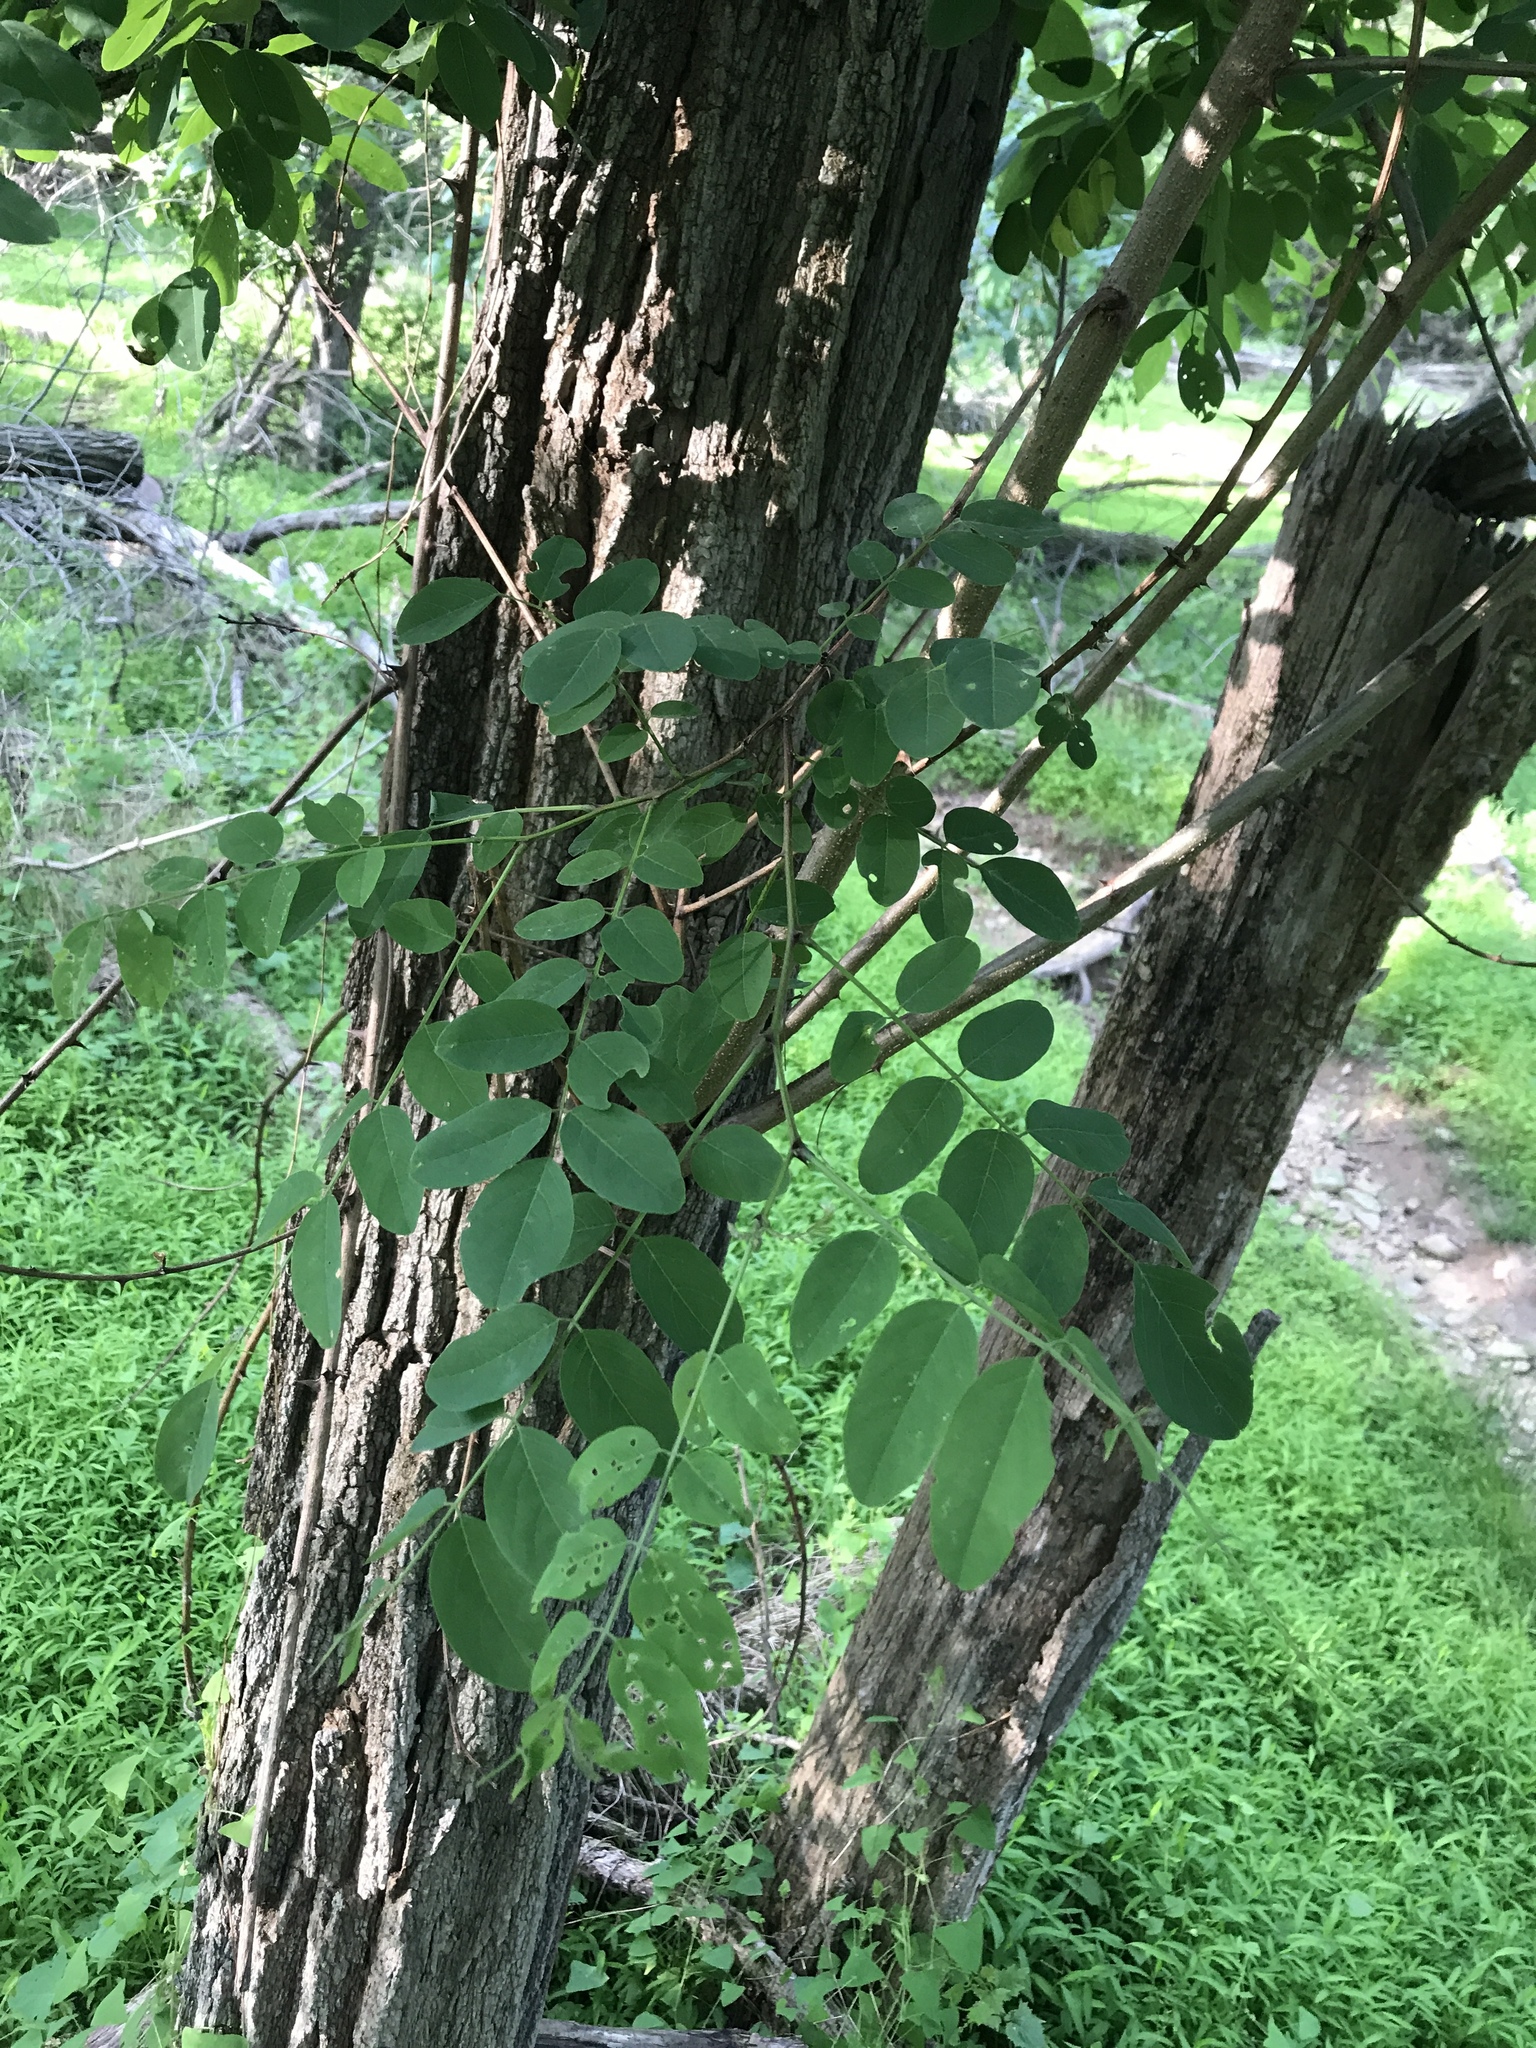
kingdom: Plantae
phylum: Tracheophyta
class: Magnoliopsida
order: Fabales
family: Fabaceae
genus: Robinia
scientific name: Robinia pseudoacacia
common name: Black locust
